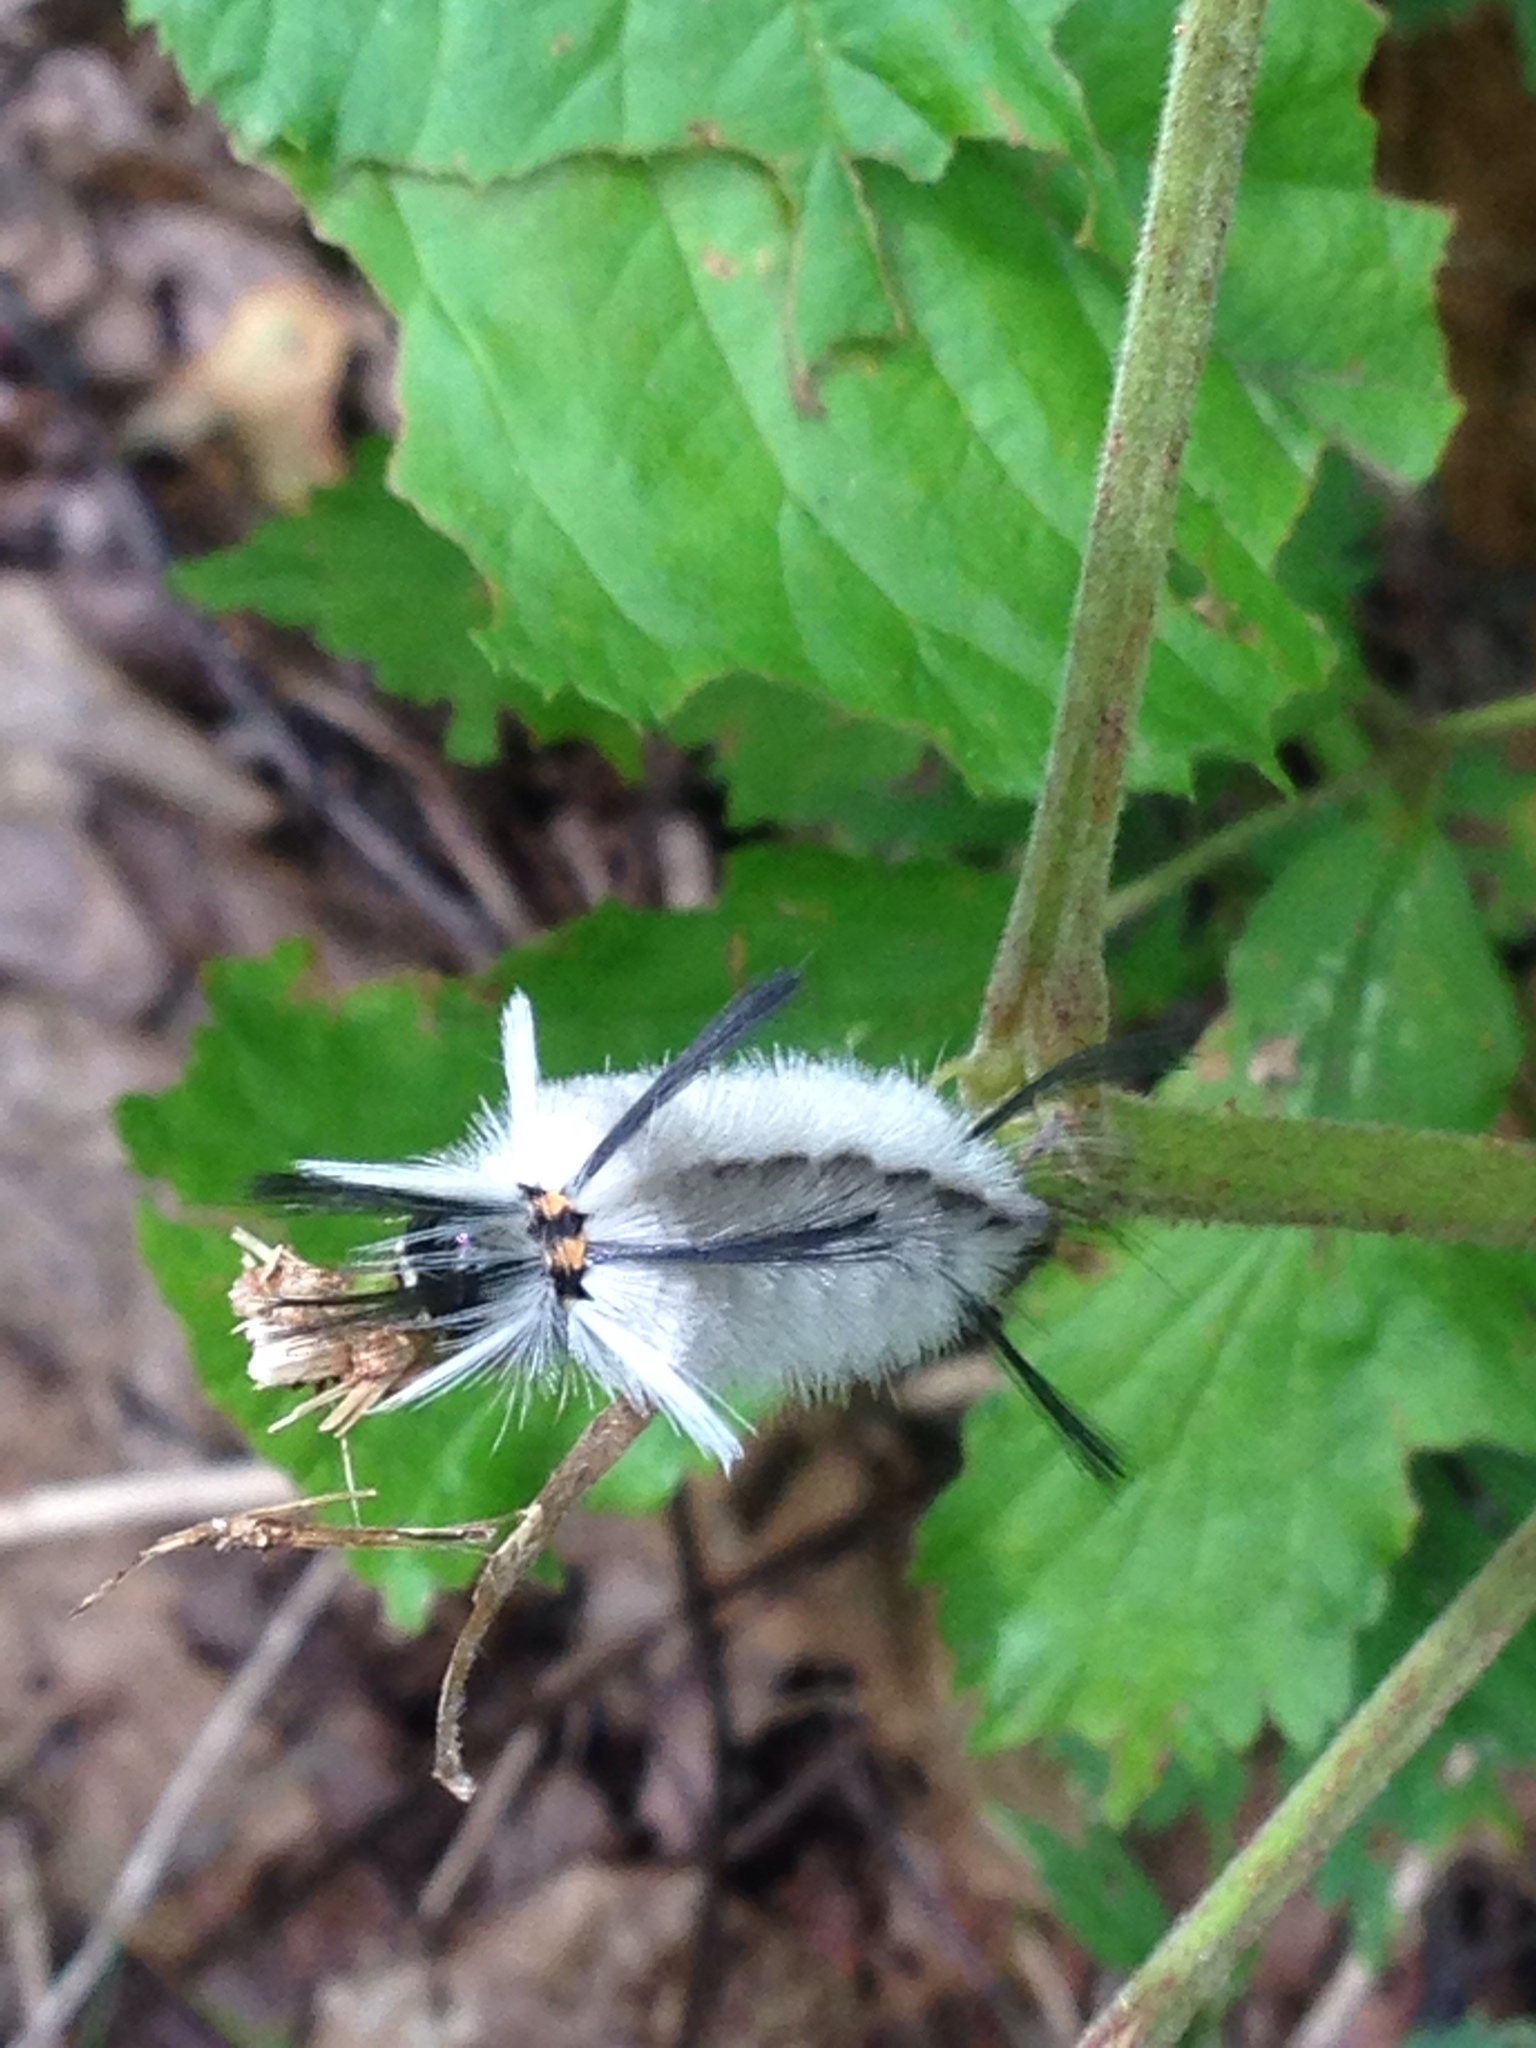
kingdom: Animalia
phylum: Arthropoda
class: Insecta
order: Lepidoptera
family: Erebidae
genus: Halysidota
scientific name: Halysidota tessellaris
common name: Banded tussock moth
